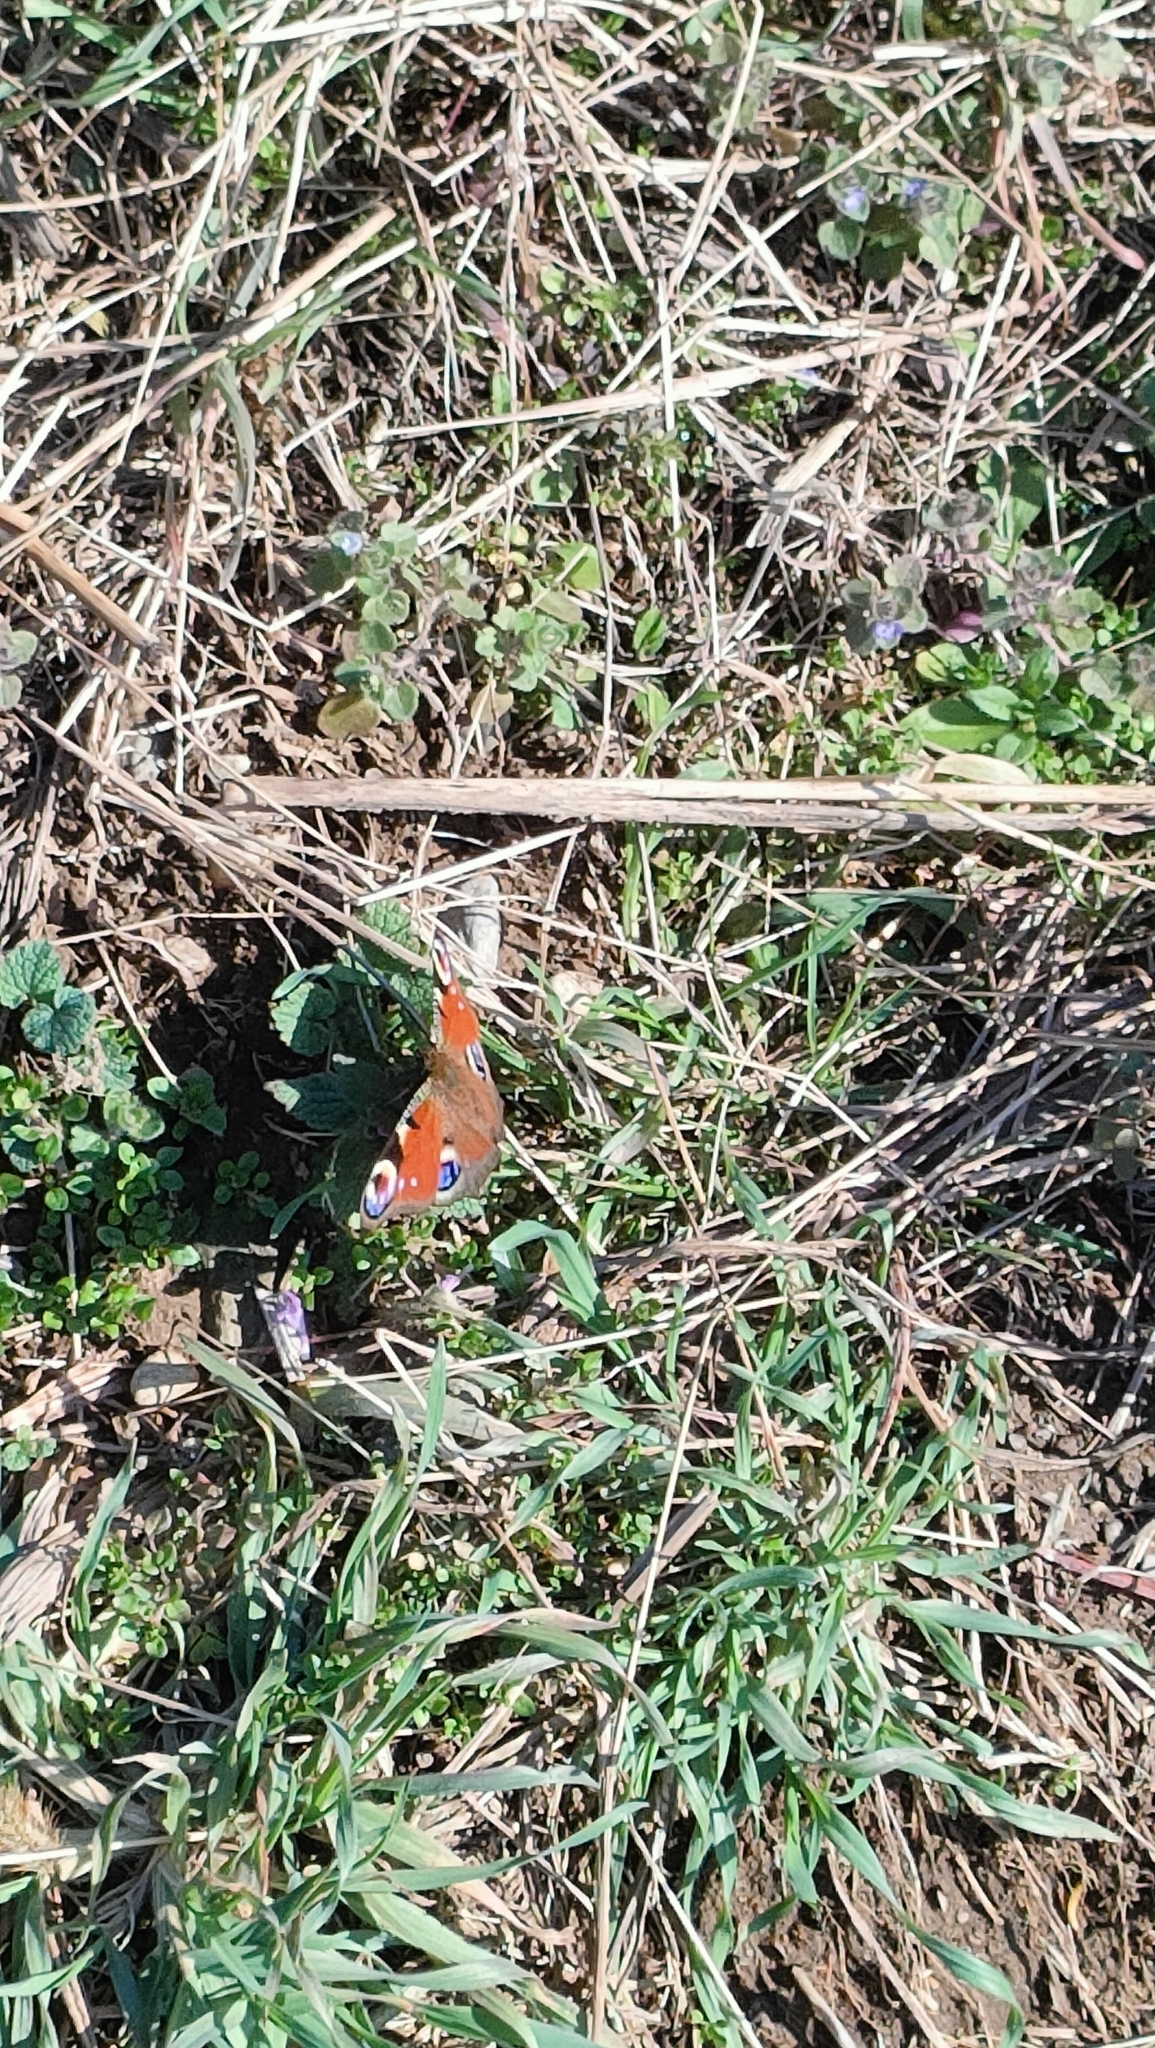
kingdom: Animalia
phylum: Arthropoda
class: Insecta
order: Lepidoptera
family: Nymphalidae
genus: Aglais
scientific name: Aglais io
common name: Peacock
